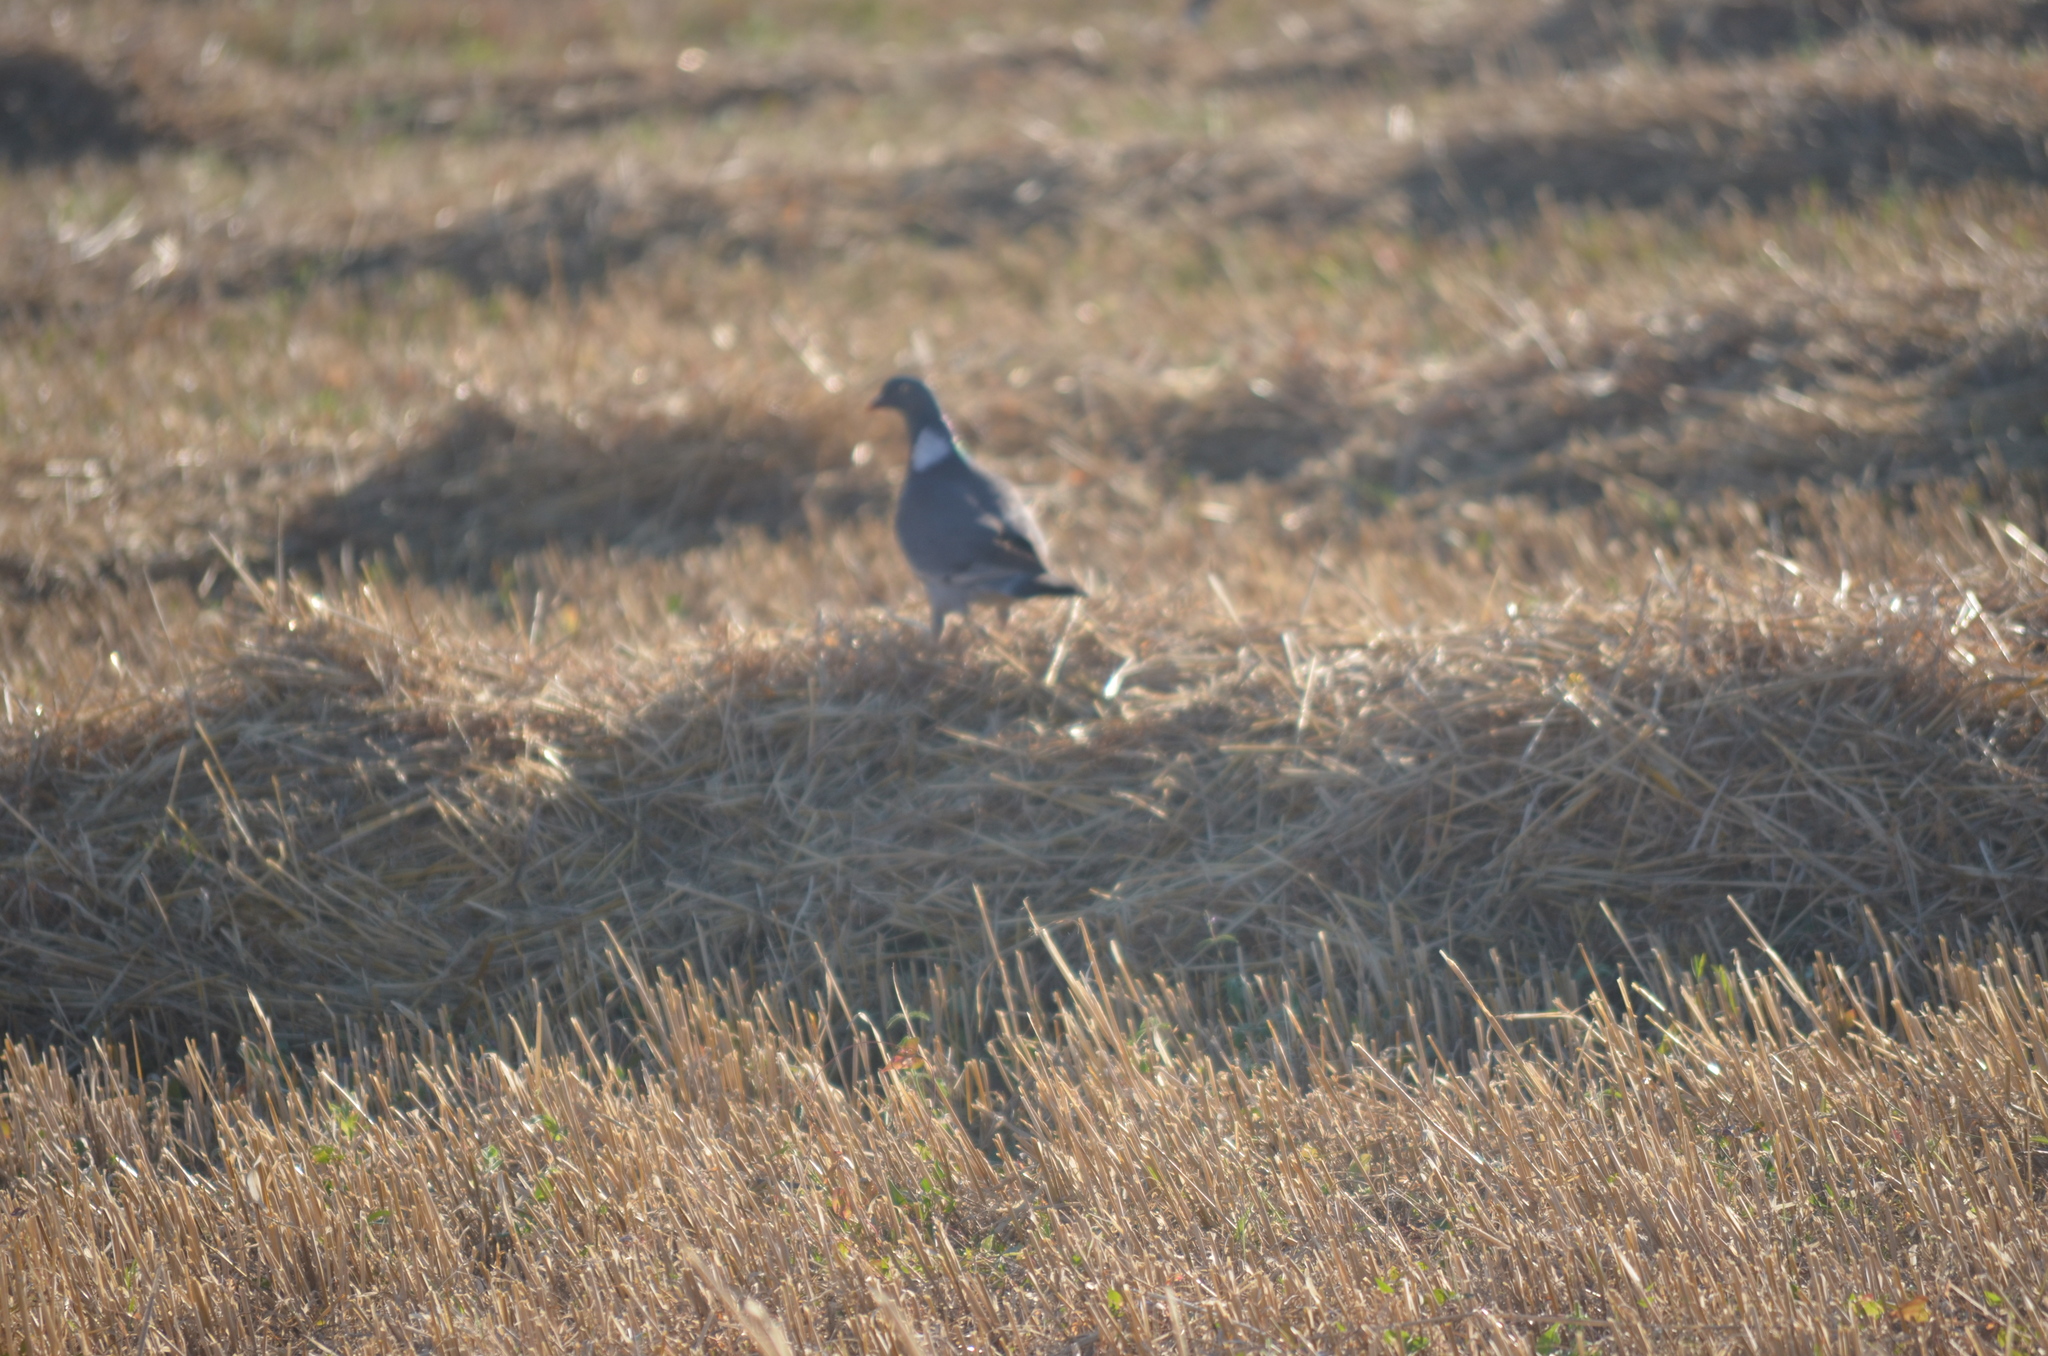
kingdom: Animalia
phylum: Chordata
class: Aves
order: Columbiformes
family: Columbidae
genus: Columba
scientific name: Columba palumbus
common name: Common wood pigeon
